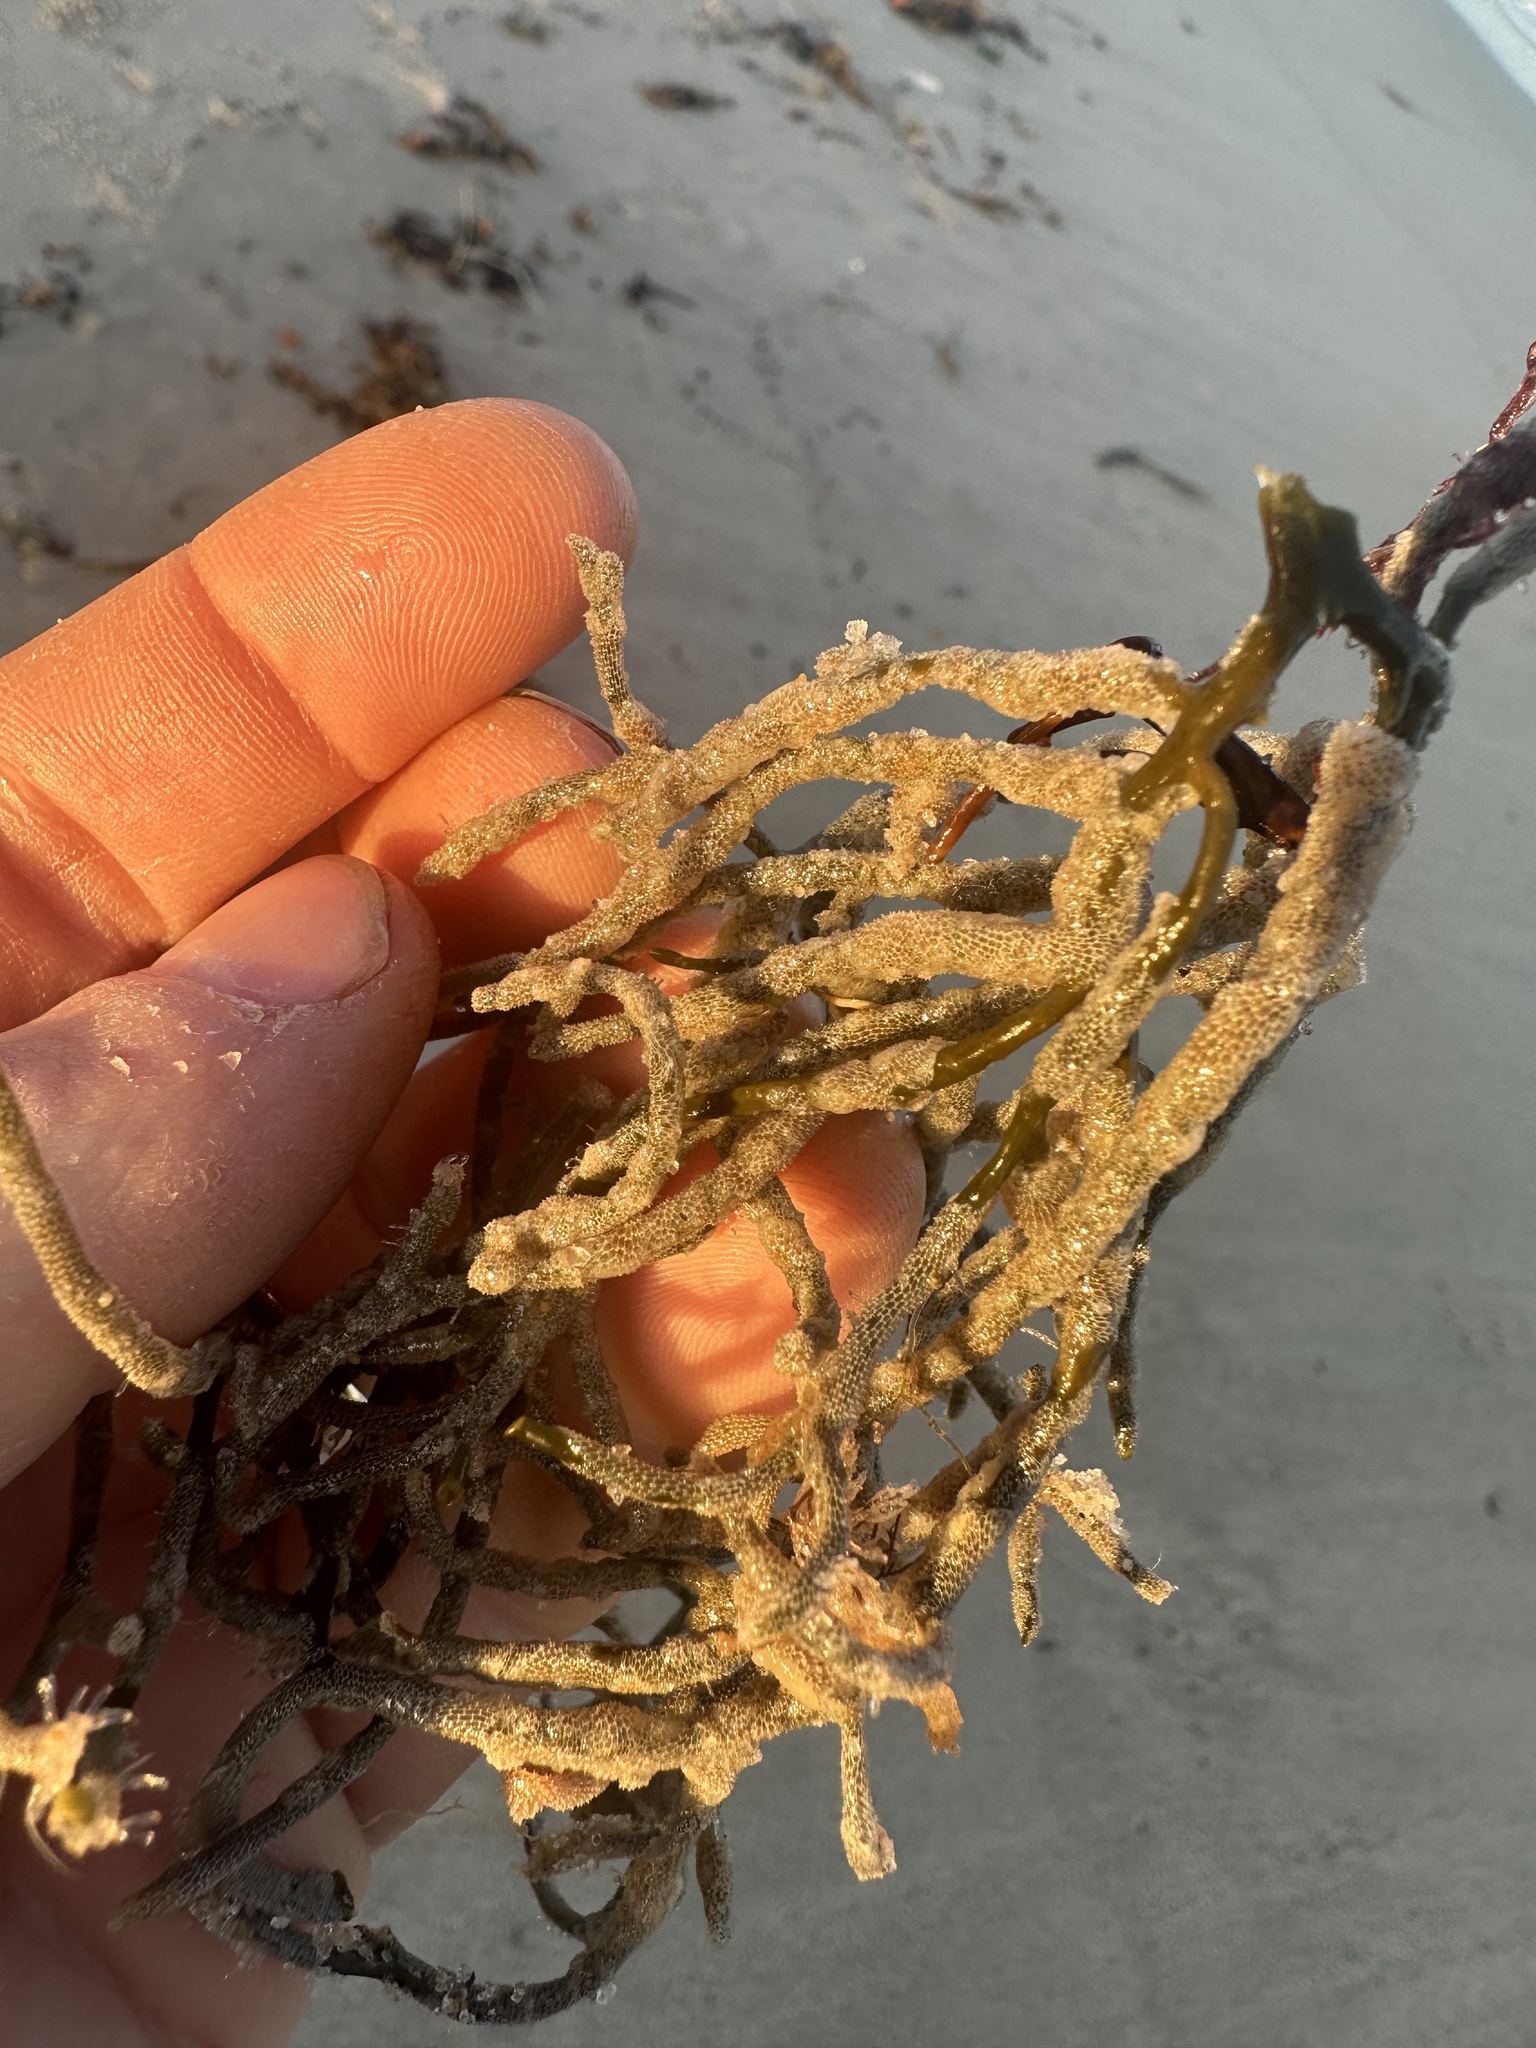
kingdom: Animalia
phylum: Bryozoa
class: Gymnolaemata
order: Cheilostomatida
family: Membraniporidae
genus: Membranipora
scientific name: Membranipora membranacea
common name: Sea mat
